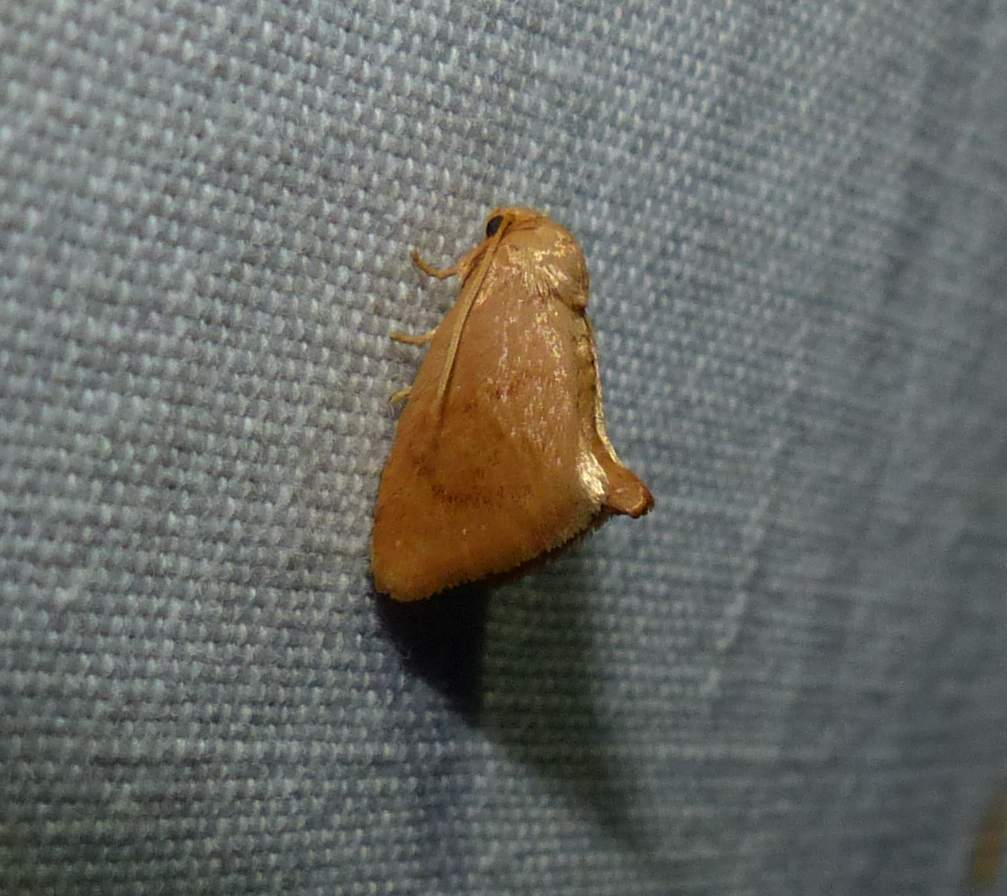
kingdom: Animalia
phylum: Arthropoda
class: Insecta
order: Lepidoptera
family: Limacodidae
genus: Tortricidia
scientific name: Tortricidia pallida
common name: Red-crossed button slug moth
